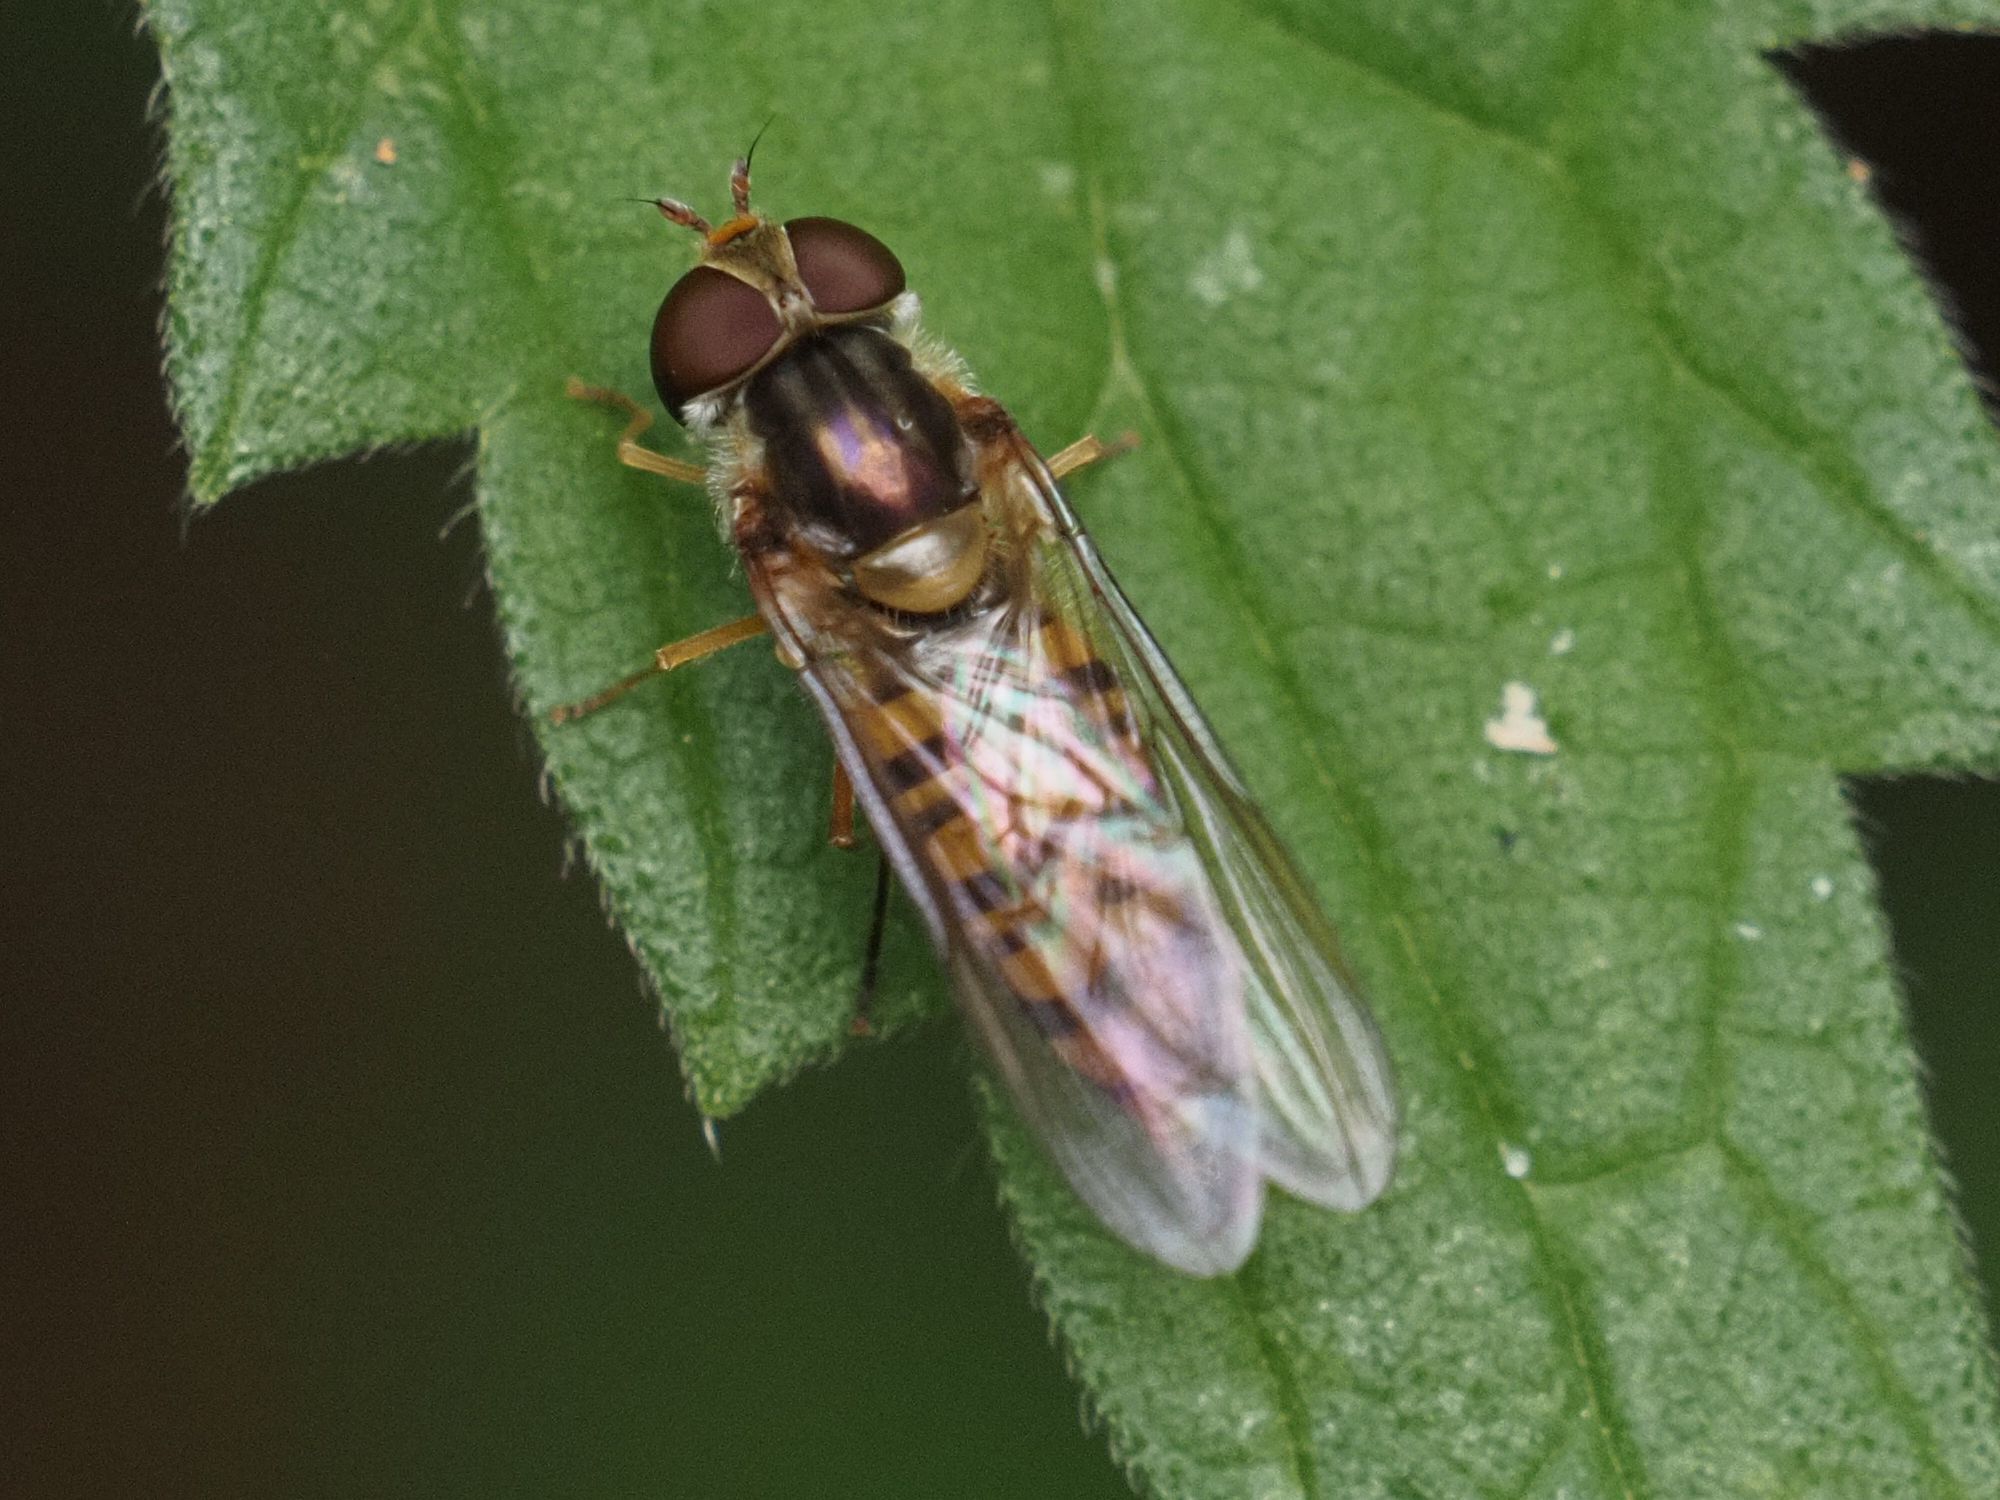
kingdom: Animalia
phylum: Arthropoda
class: Insecta
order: Diptera
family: Syrphidae
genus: Episyrphus
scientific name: Episyrphus balteatus
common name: Marmalade hoverfly
